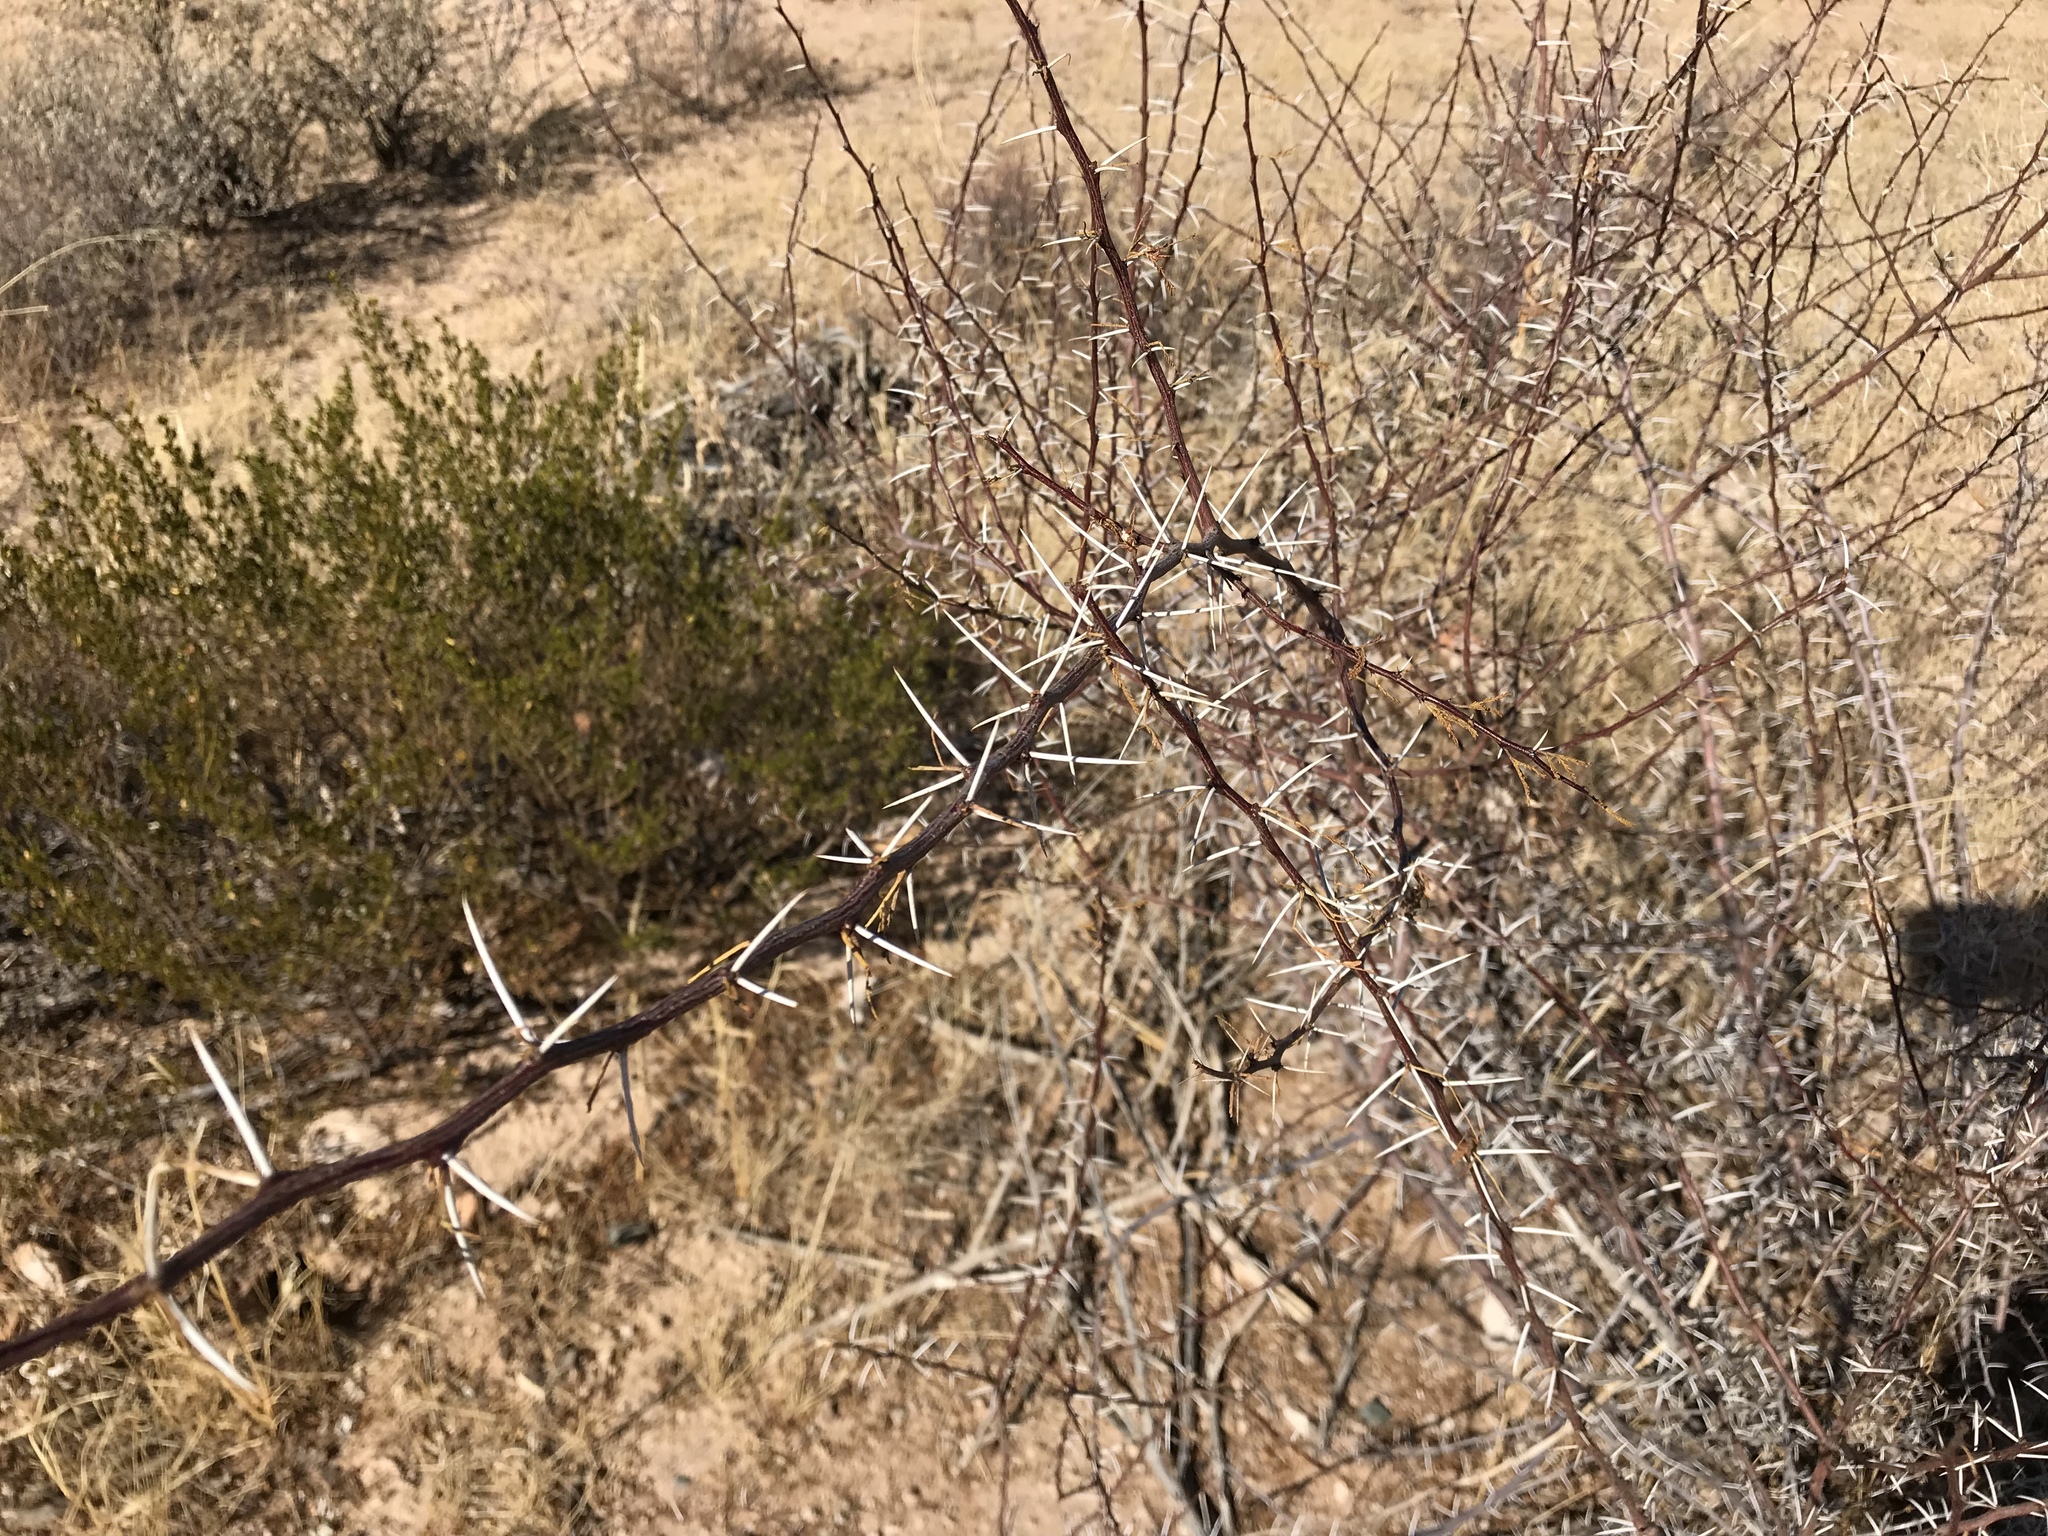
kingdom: Plantae
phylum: Tracheophyta
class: Magnoliopsida
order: Fabales
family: Fabaceae
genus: Vachellia
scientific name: Vachellia constricta
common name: Mescat acacia
